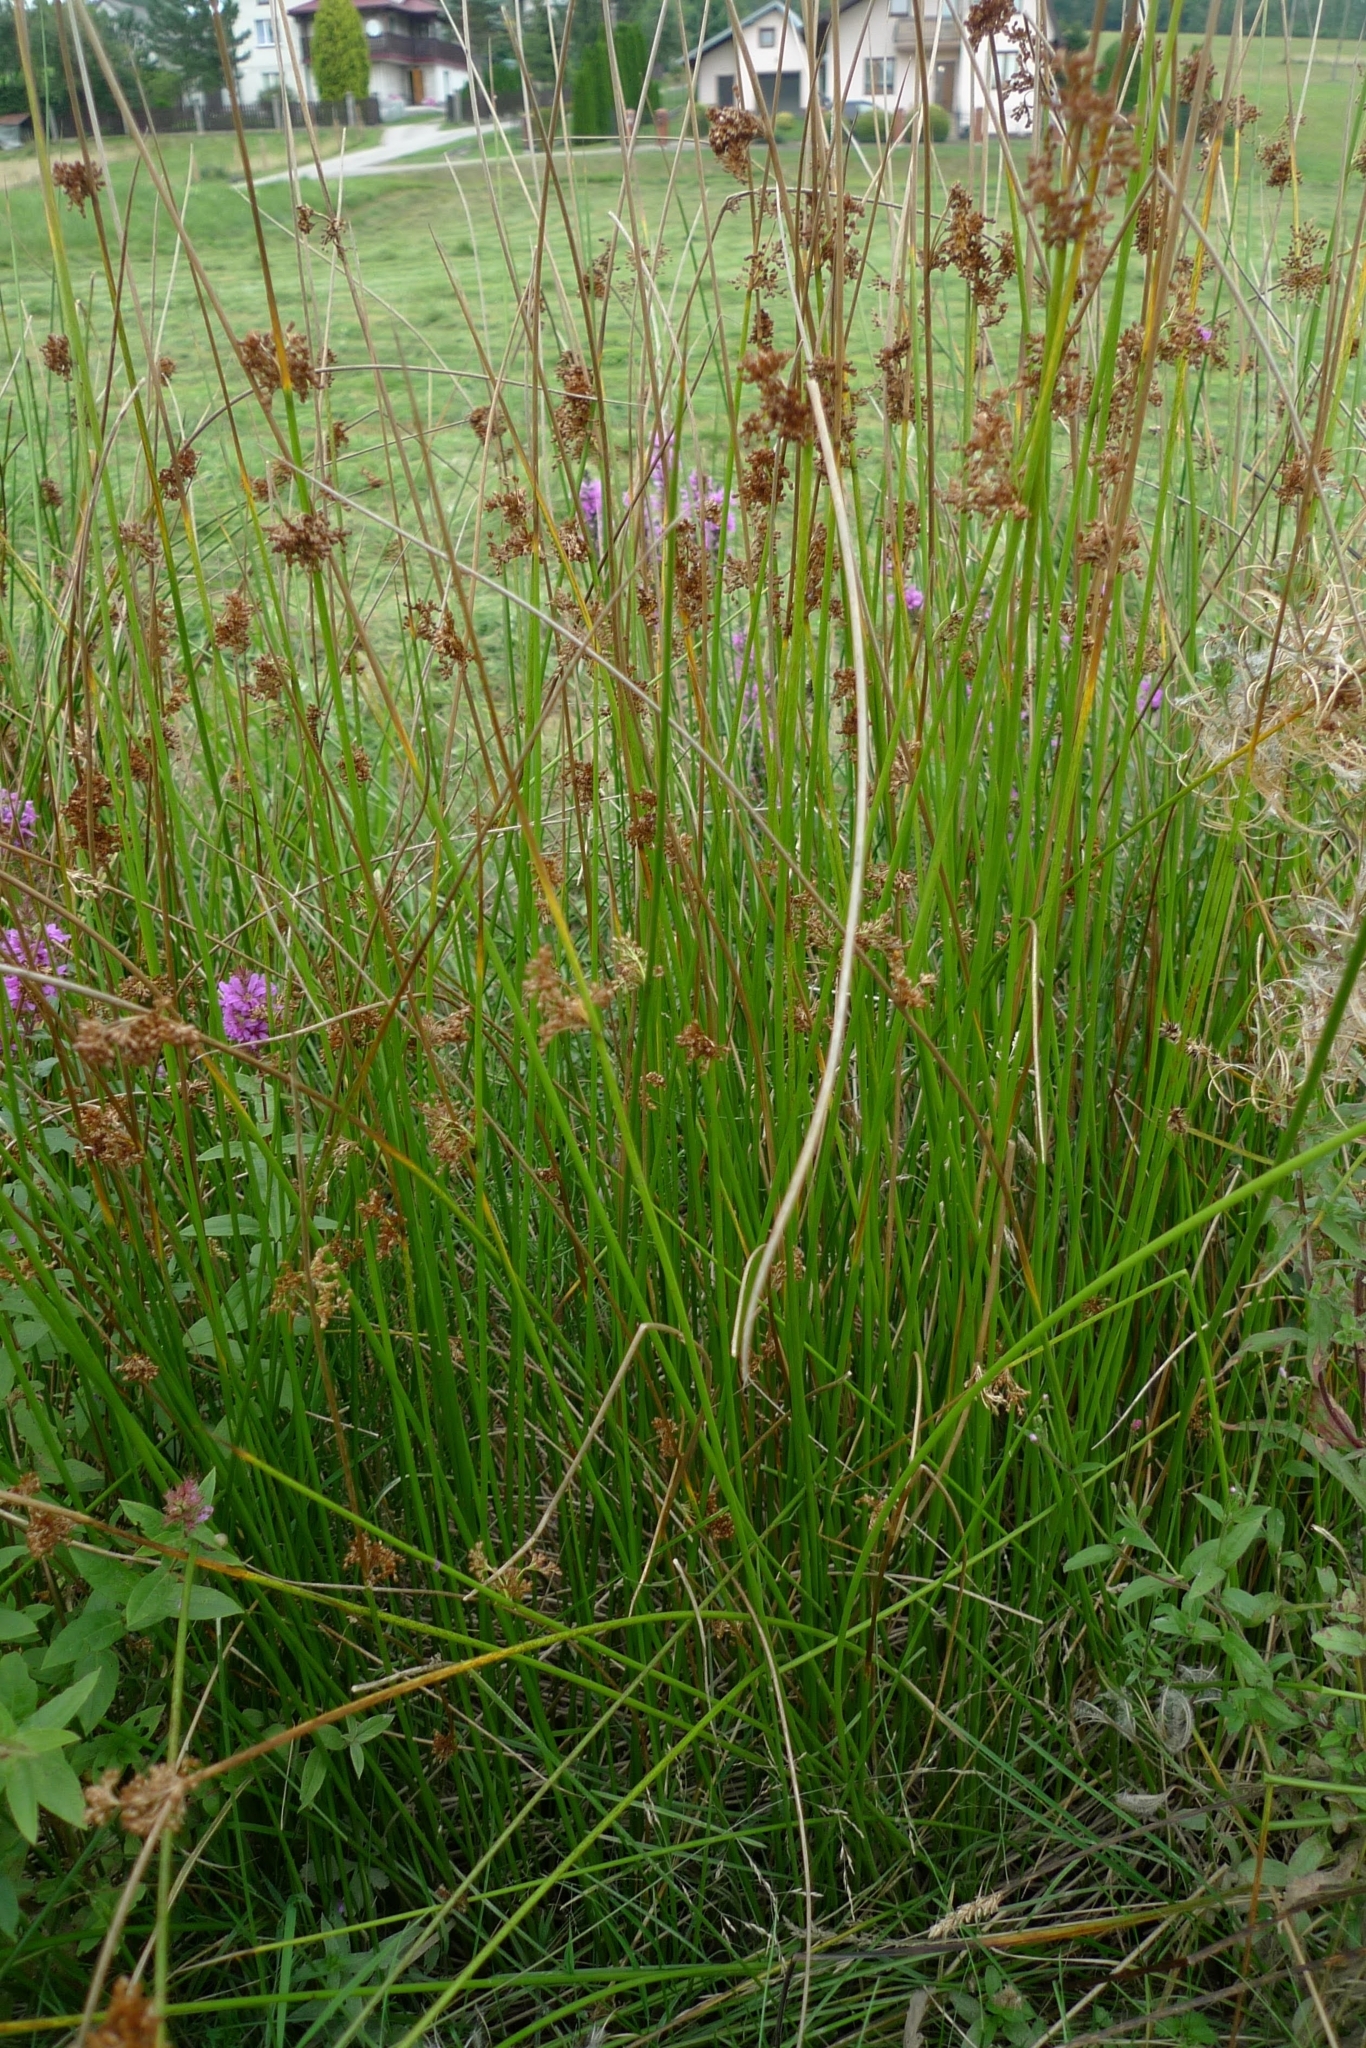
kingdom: Plantae
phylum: Tracheophyta
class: Liliopsida
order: Poales
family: Juncaceae
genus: Juncus
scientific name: Juncus effusus
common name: Soft rush
